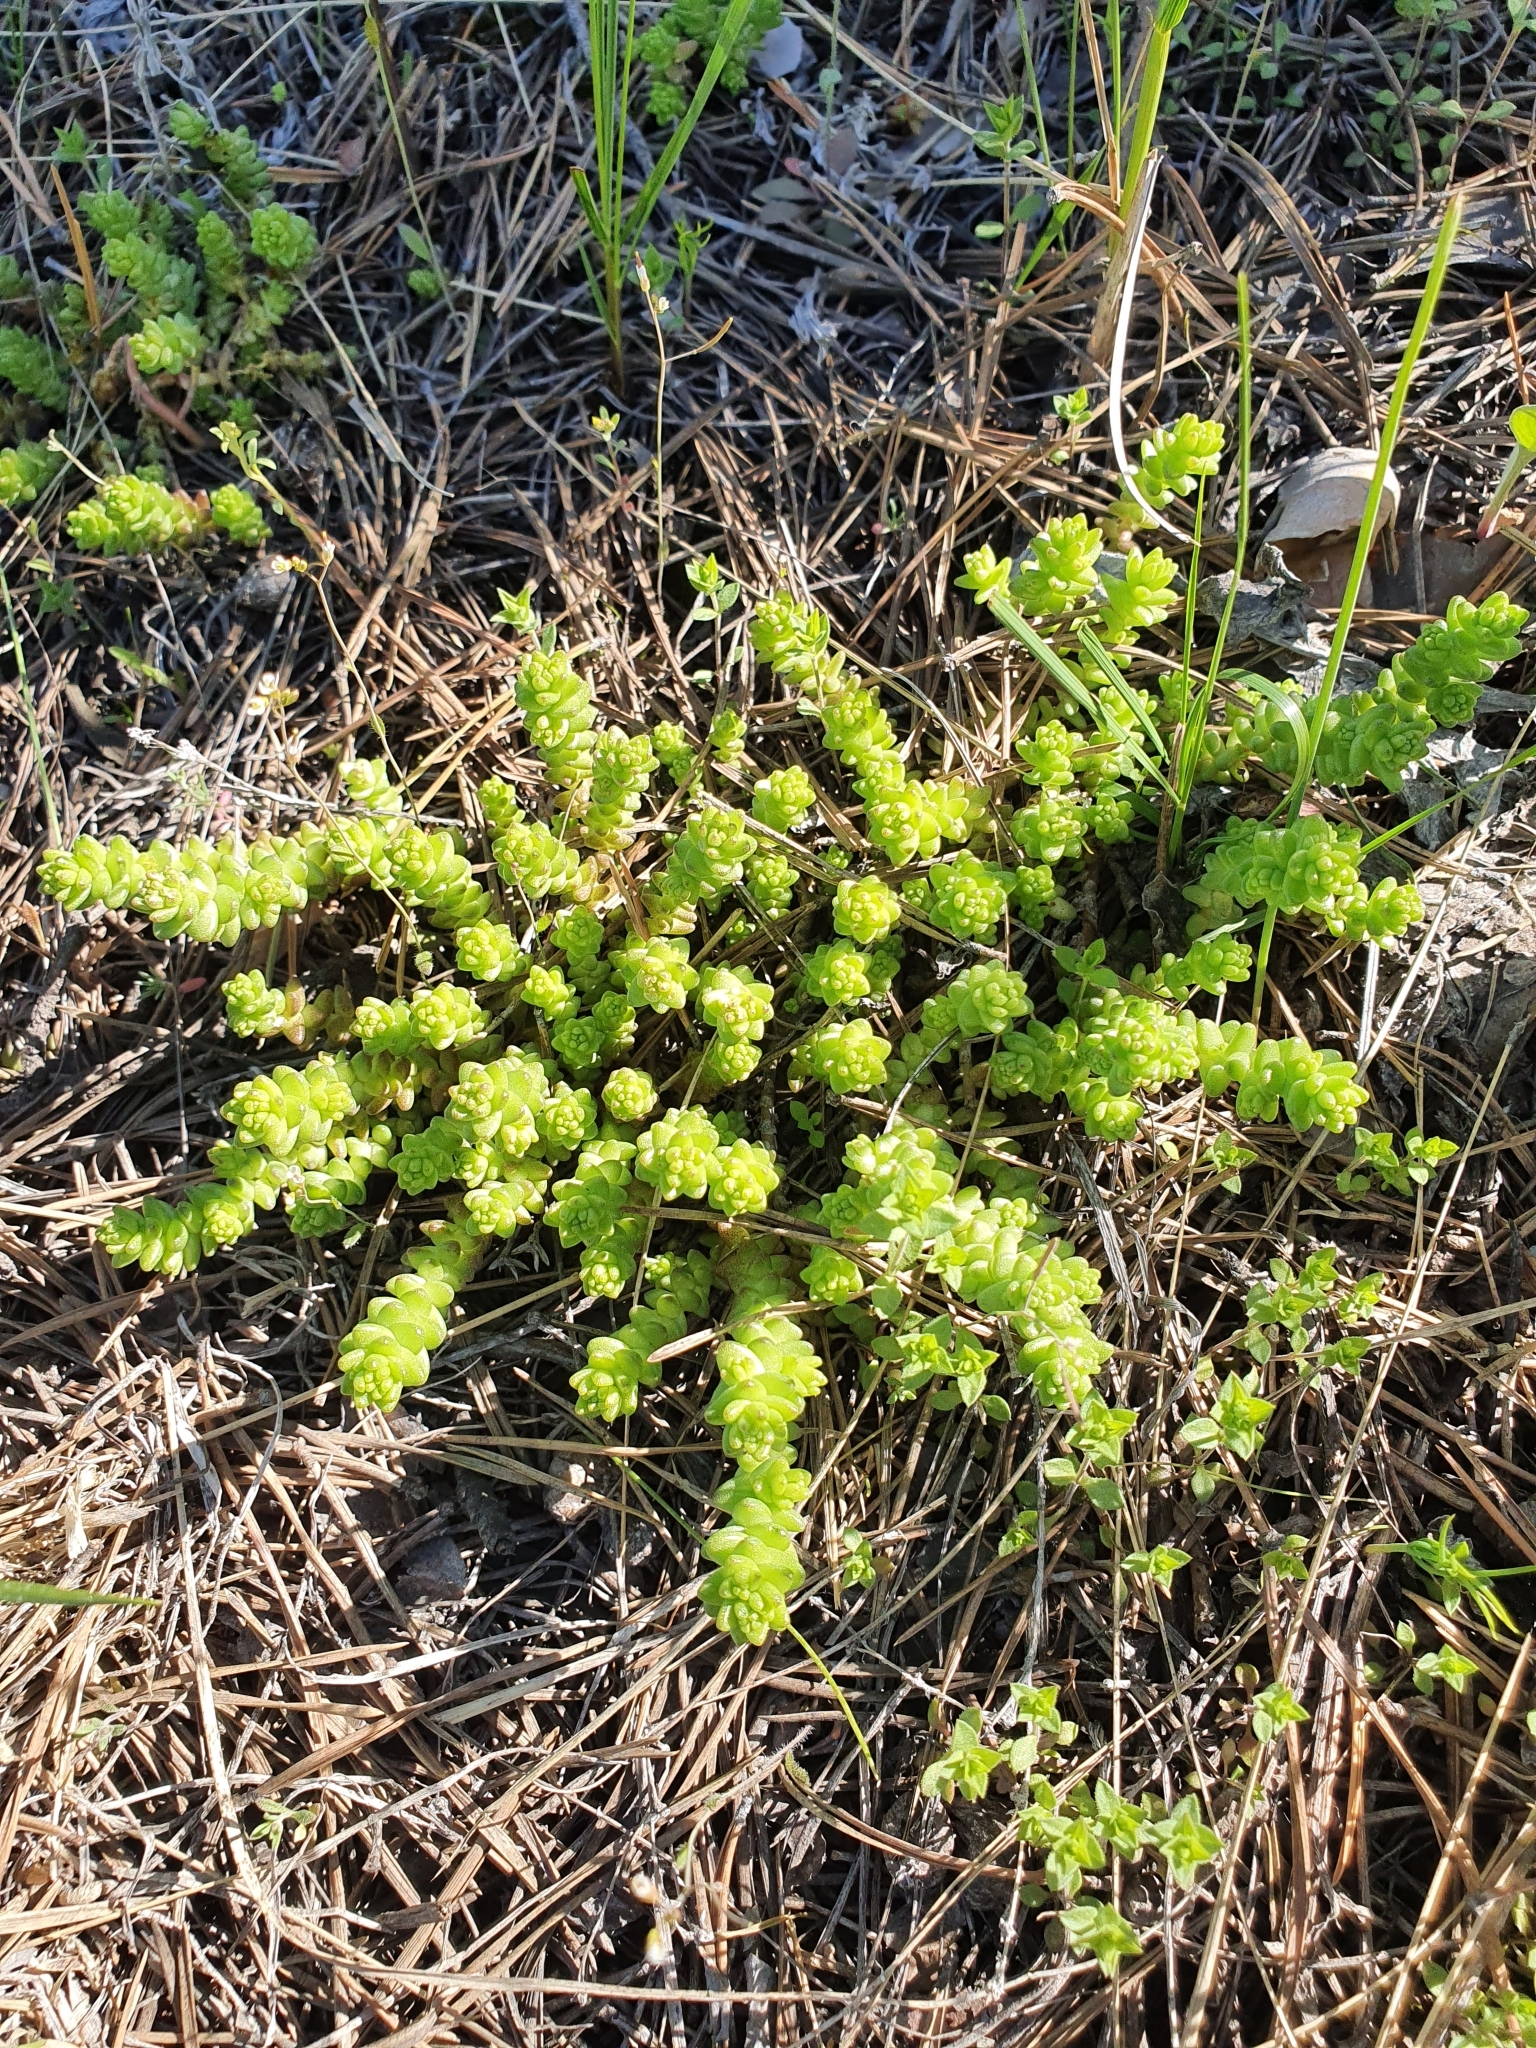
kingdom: Plantae
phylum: Tracheophyta
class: Magnoliopsida
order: Saxifragales
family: Crassulaceae
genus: Sedum
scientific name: Sedum acre
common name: Biting stonecrop
